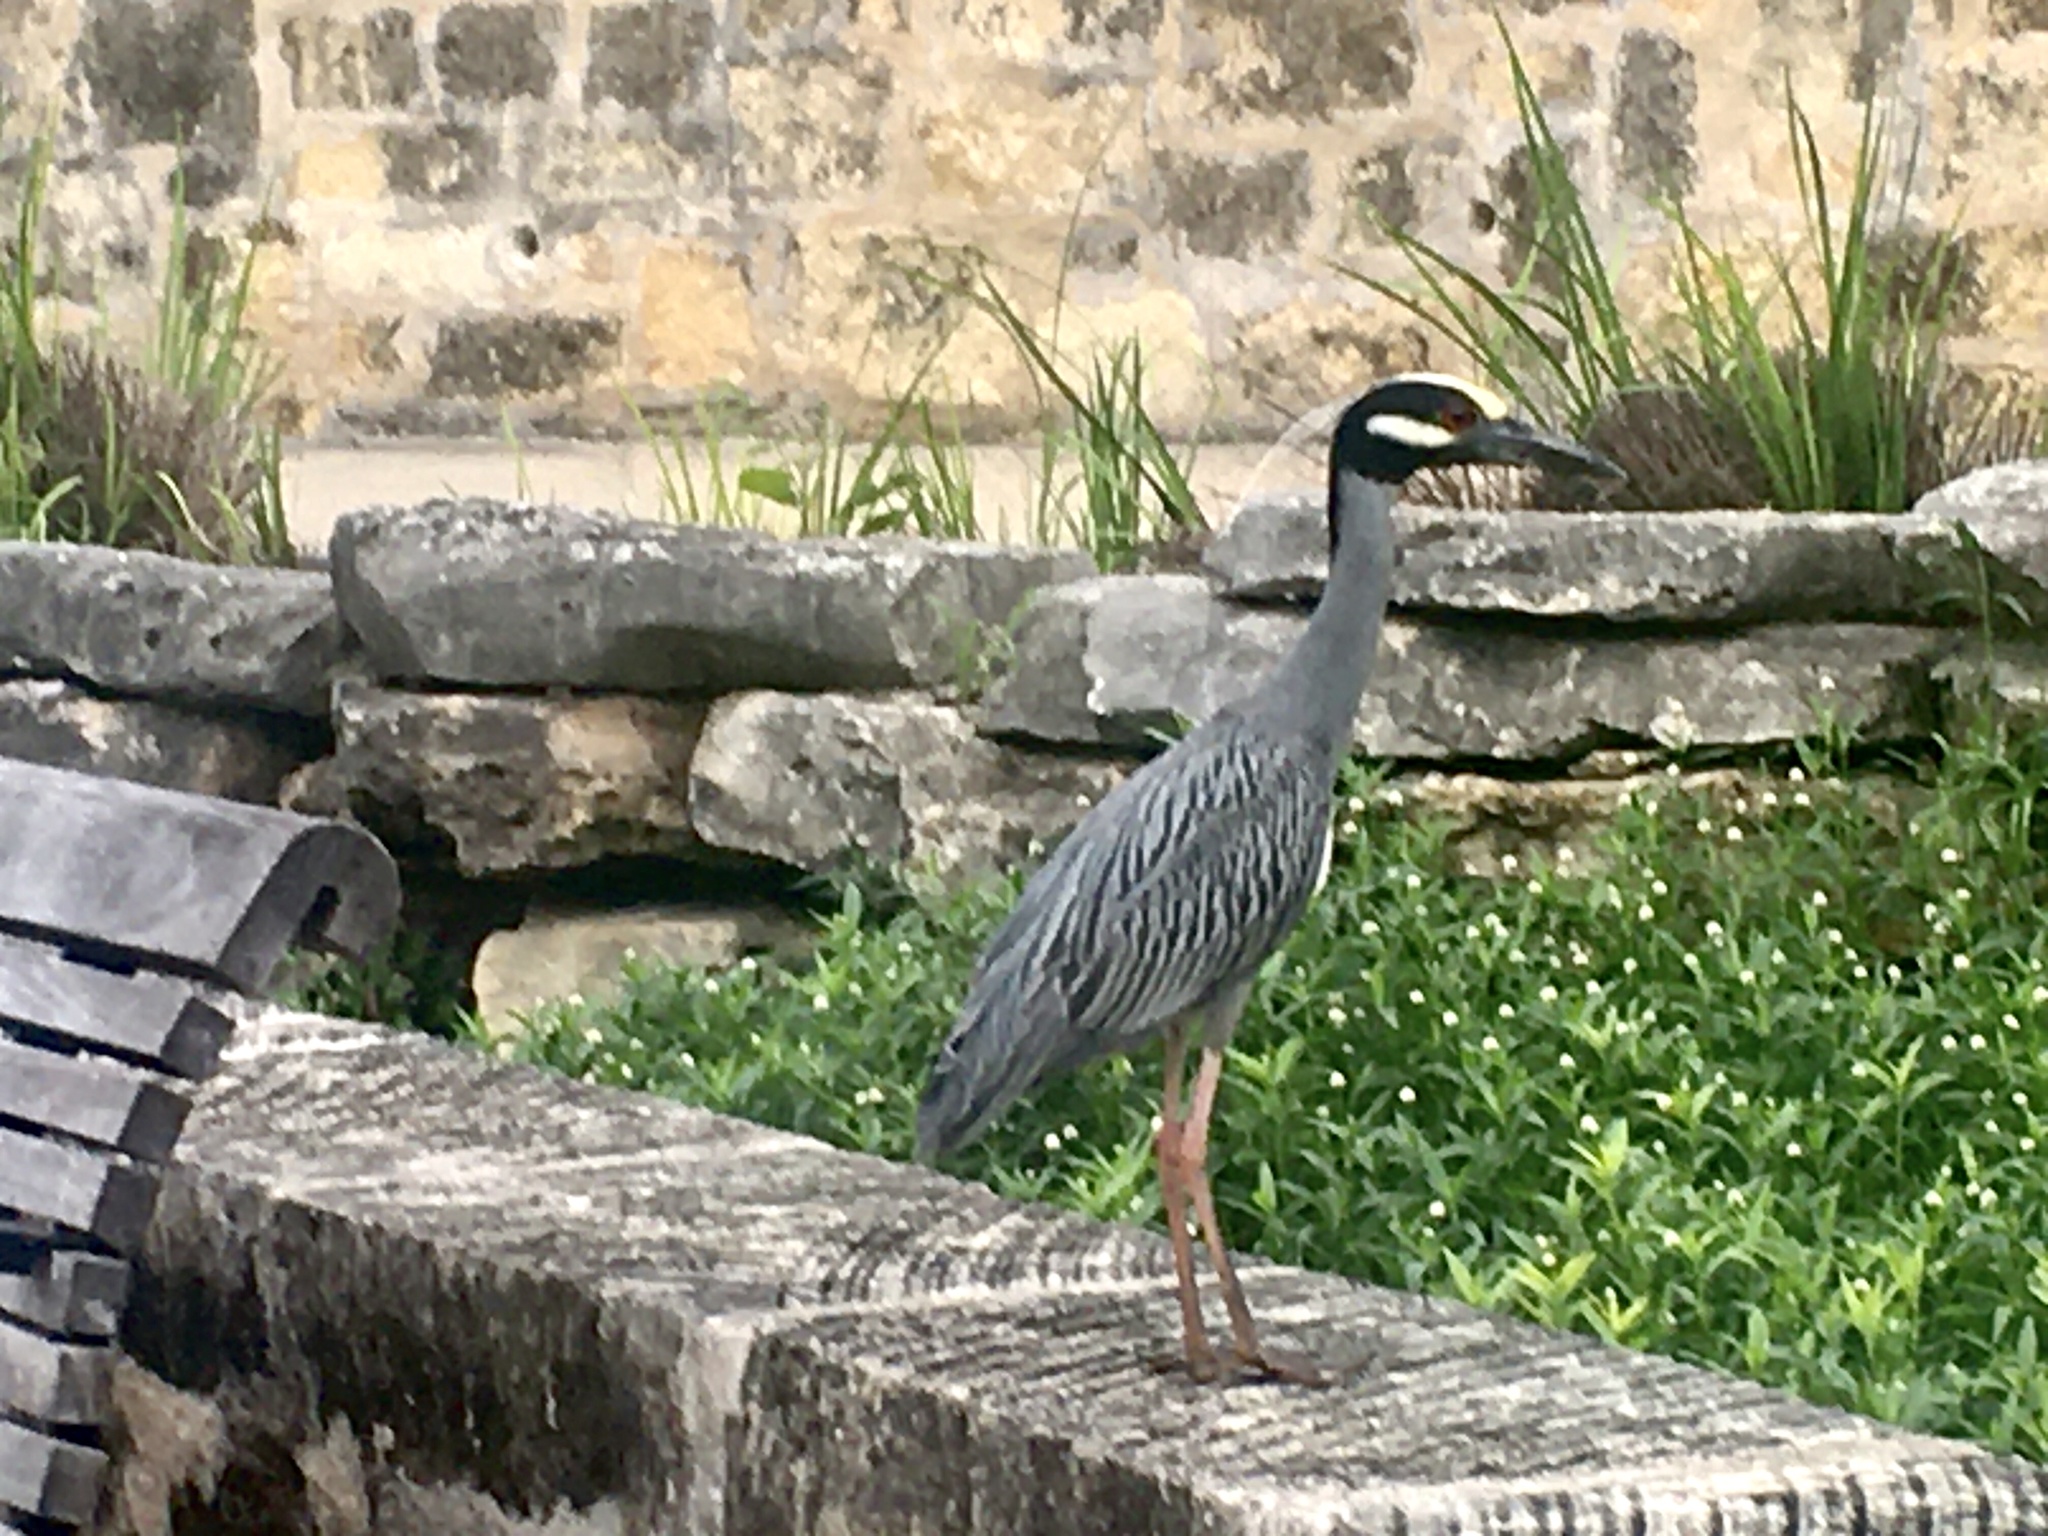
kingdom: Animalia
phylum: Chordata
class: Aves
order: Pelecaniformes
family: Ardeidae
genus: Nyctanassa
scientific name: Nyctanassa violacea
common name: Yellow-crowned night heron
